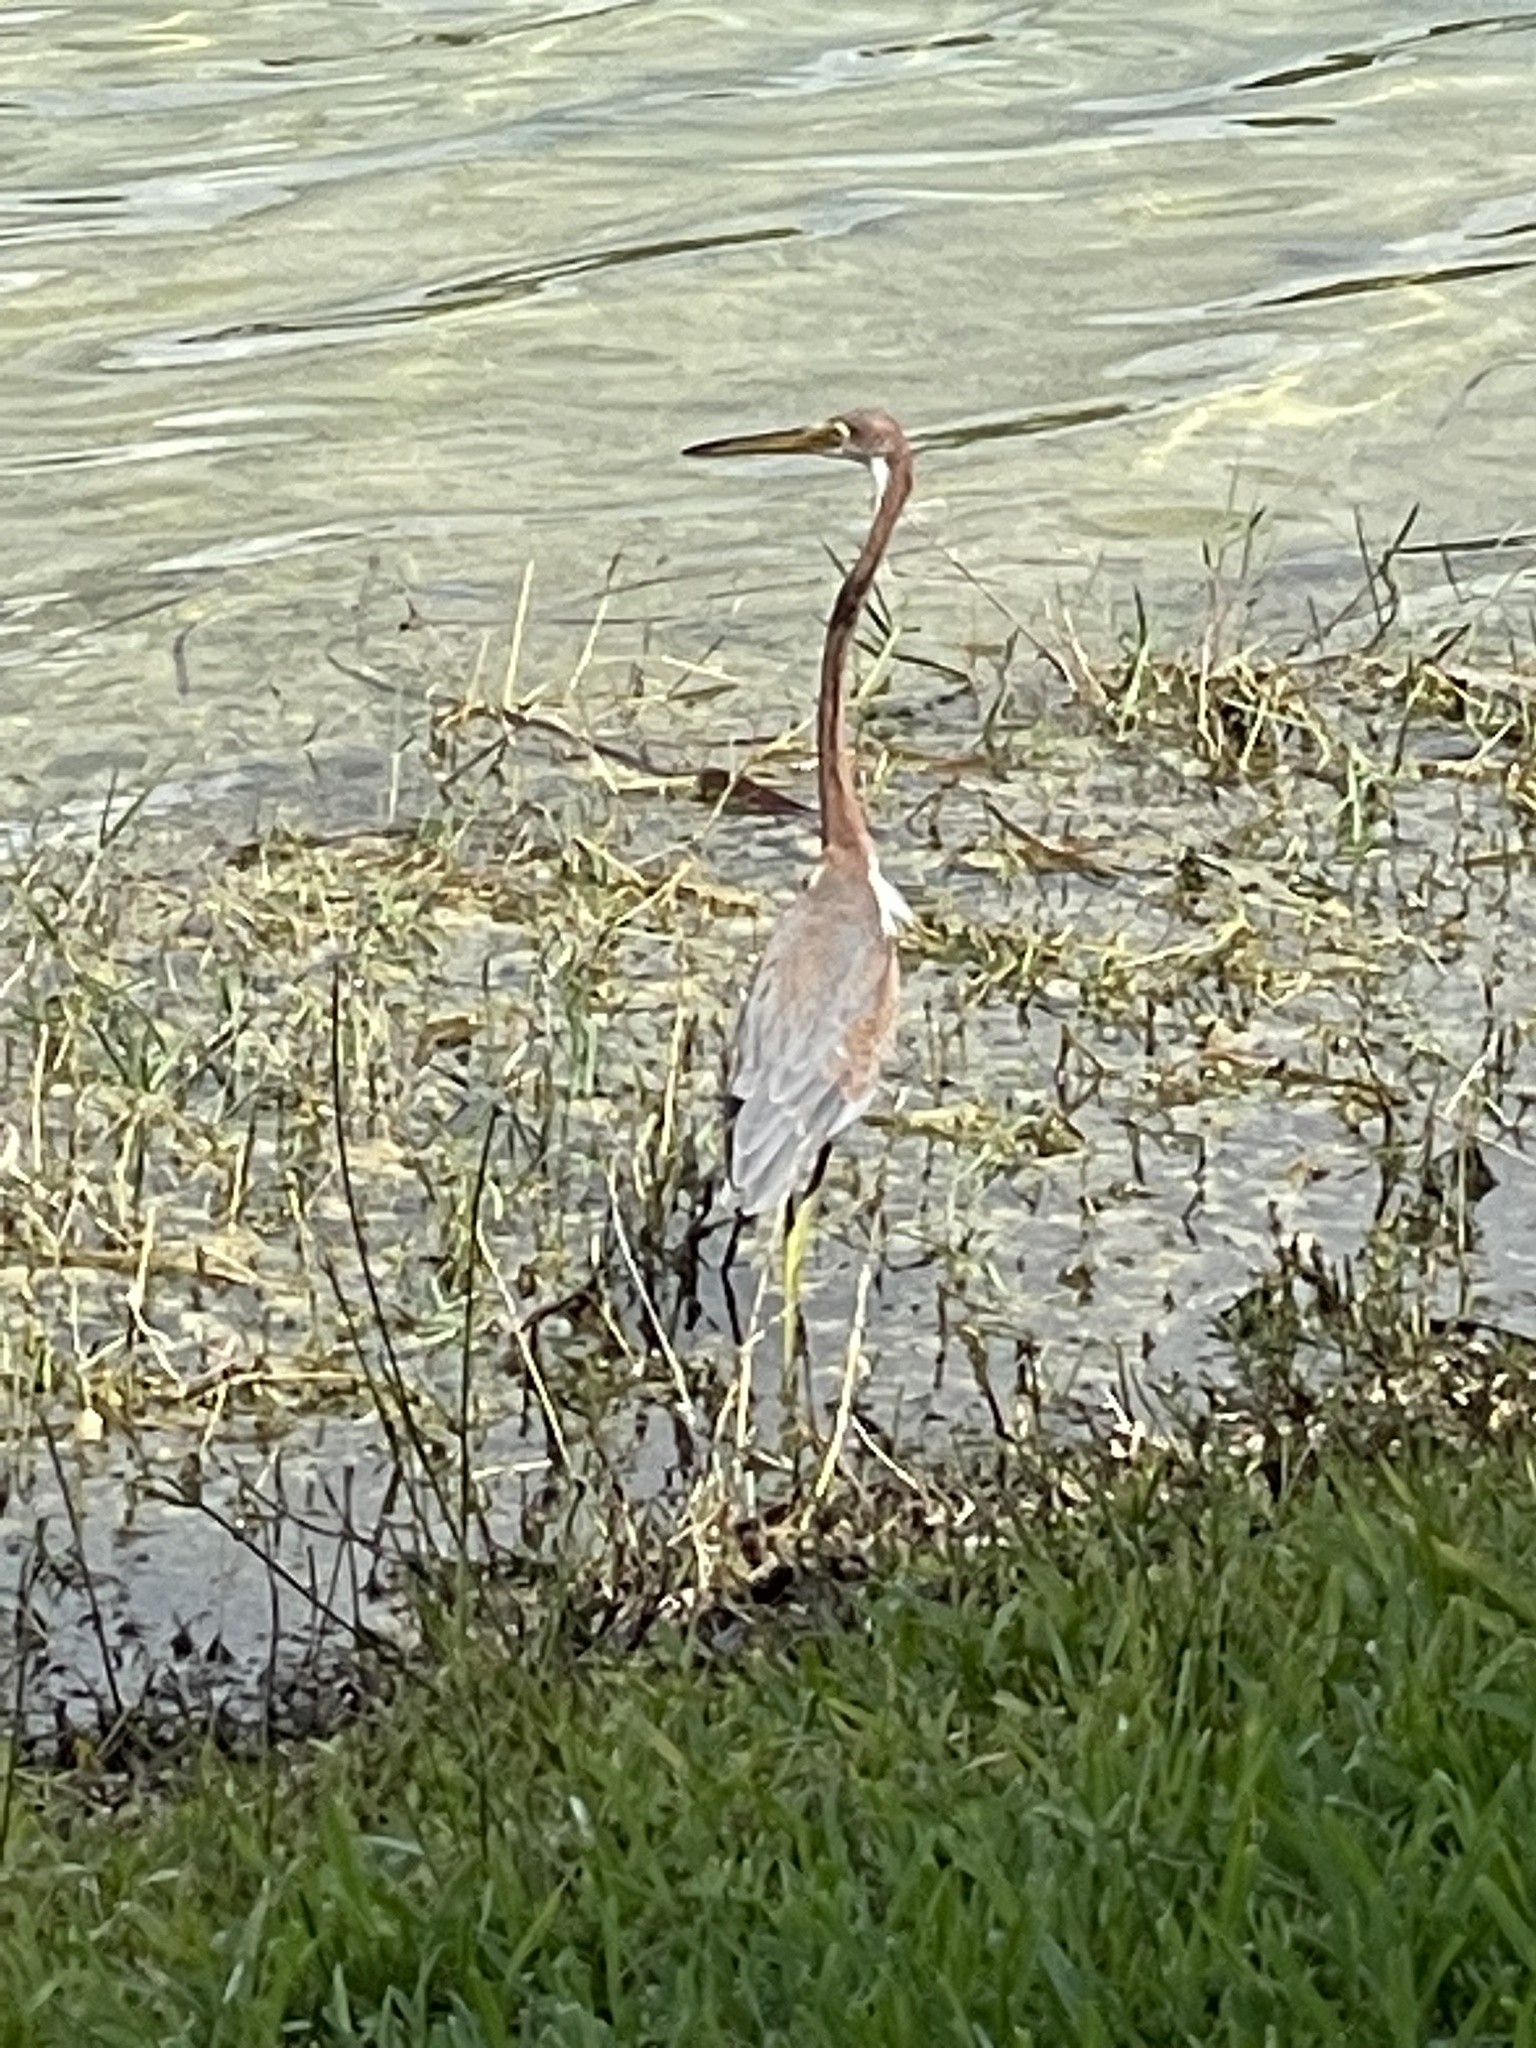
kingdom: Animalia
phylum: Chordata
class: Aves
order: Pelecaniformes
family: Ardeidae
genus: Egretta
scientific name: Egretta tricolor
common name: Tricolored heron
